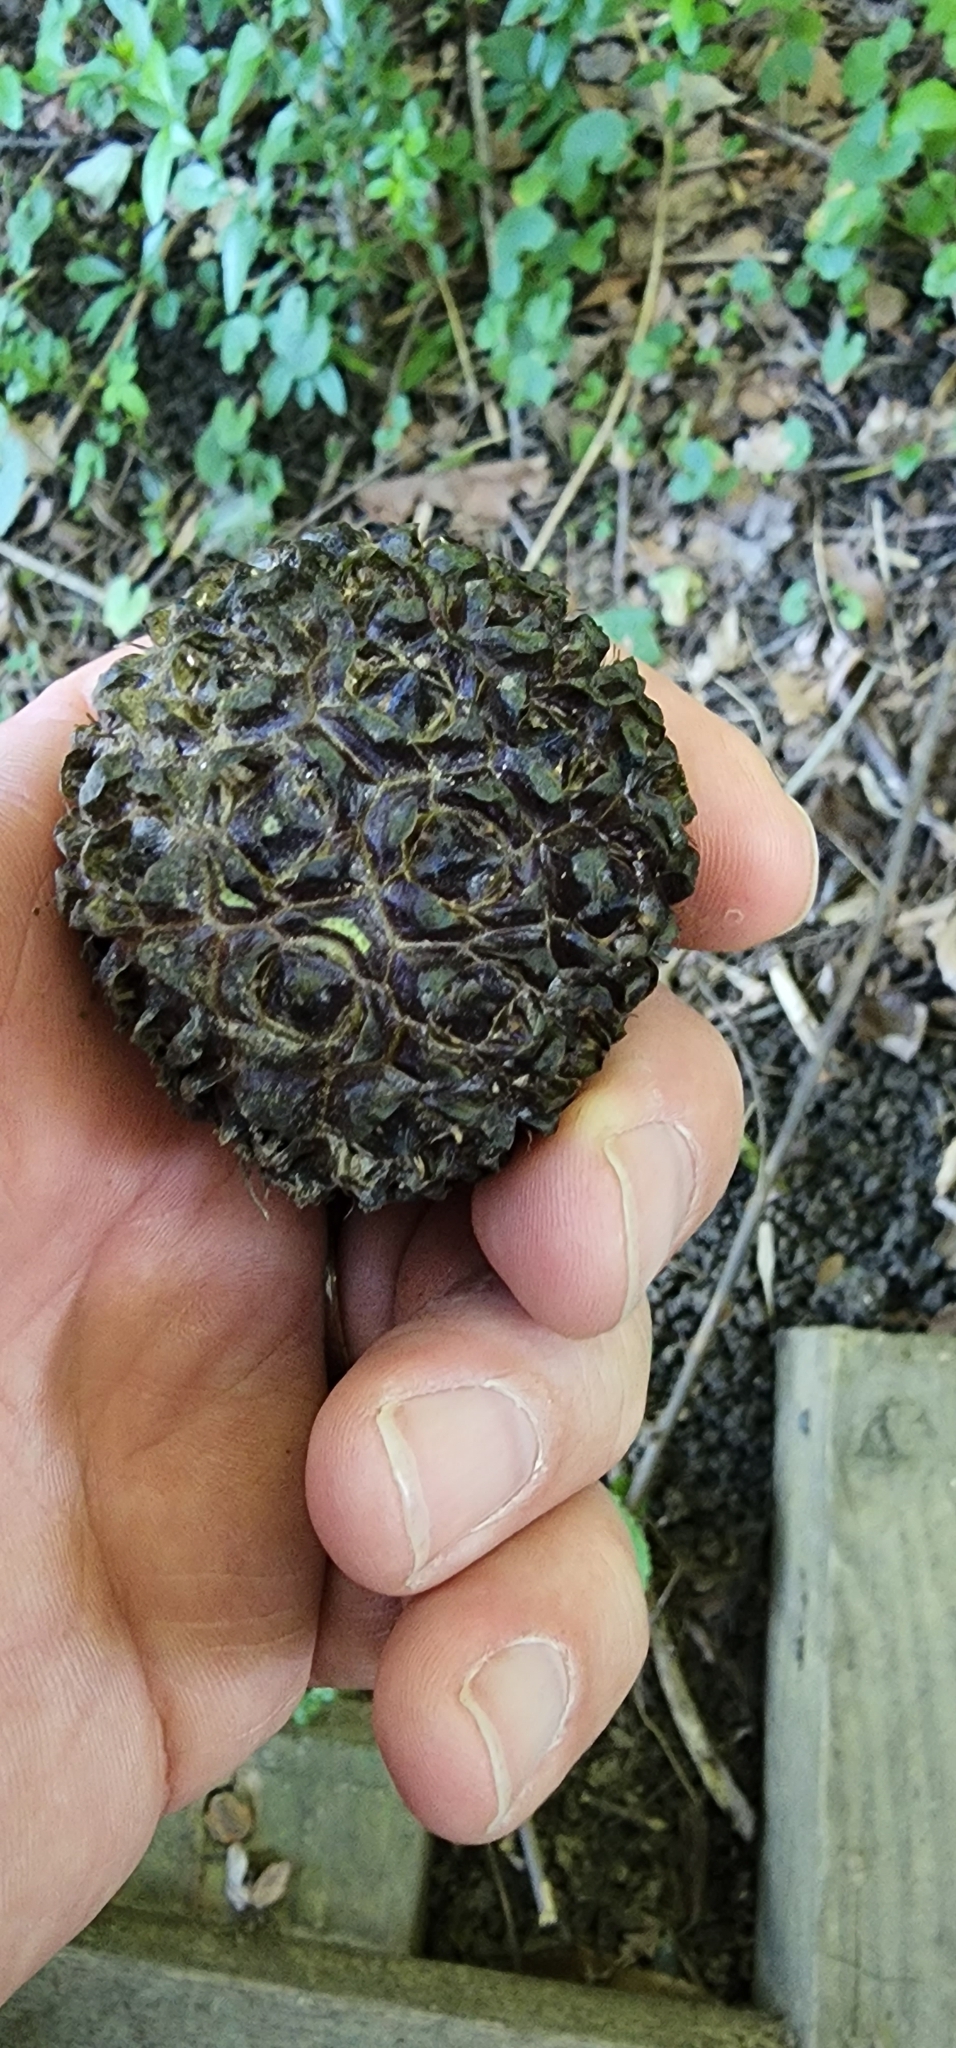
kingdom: Plantae
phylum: Tracheophyta
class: Liliopsida
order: Alismatales
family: Araceae
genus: Symplocarpus
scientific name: Symplocarpus foetidus
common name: Eastern skunk cabbage
